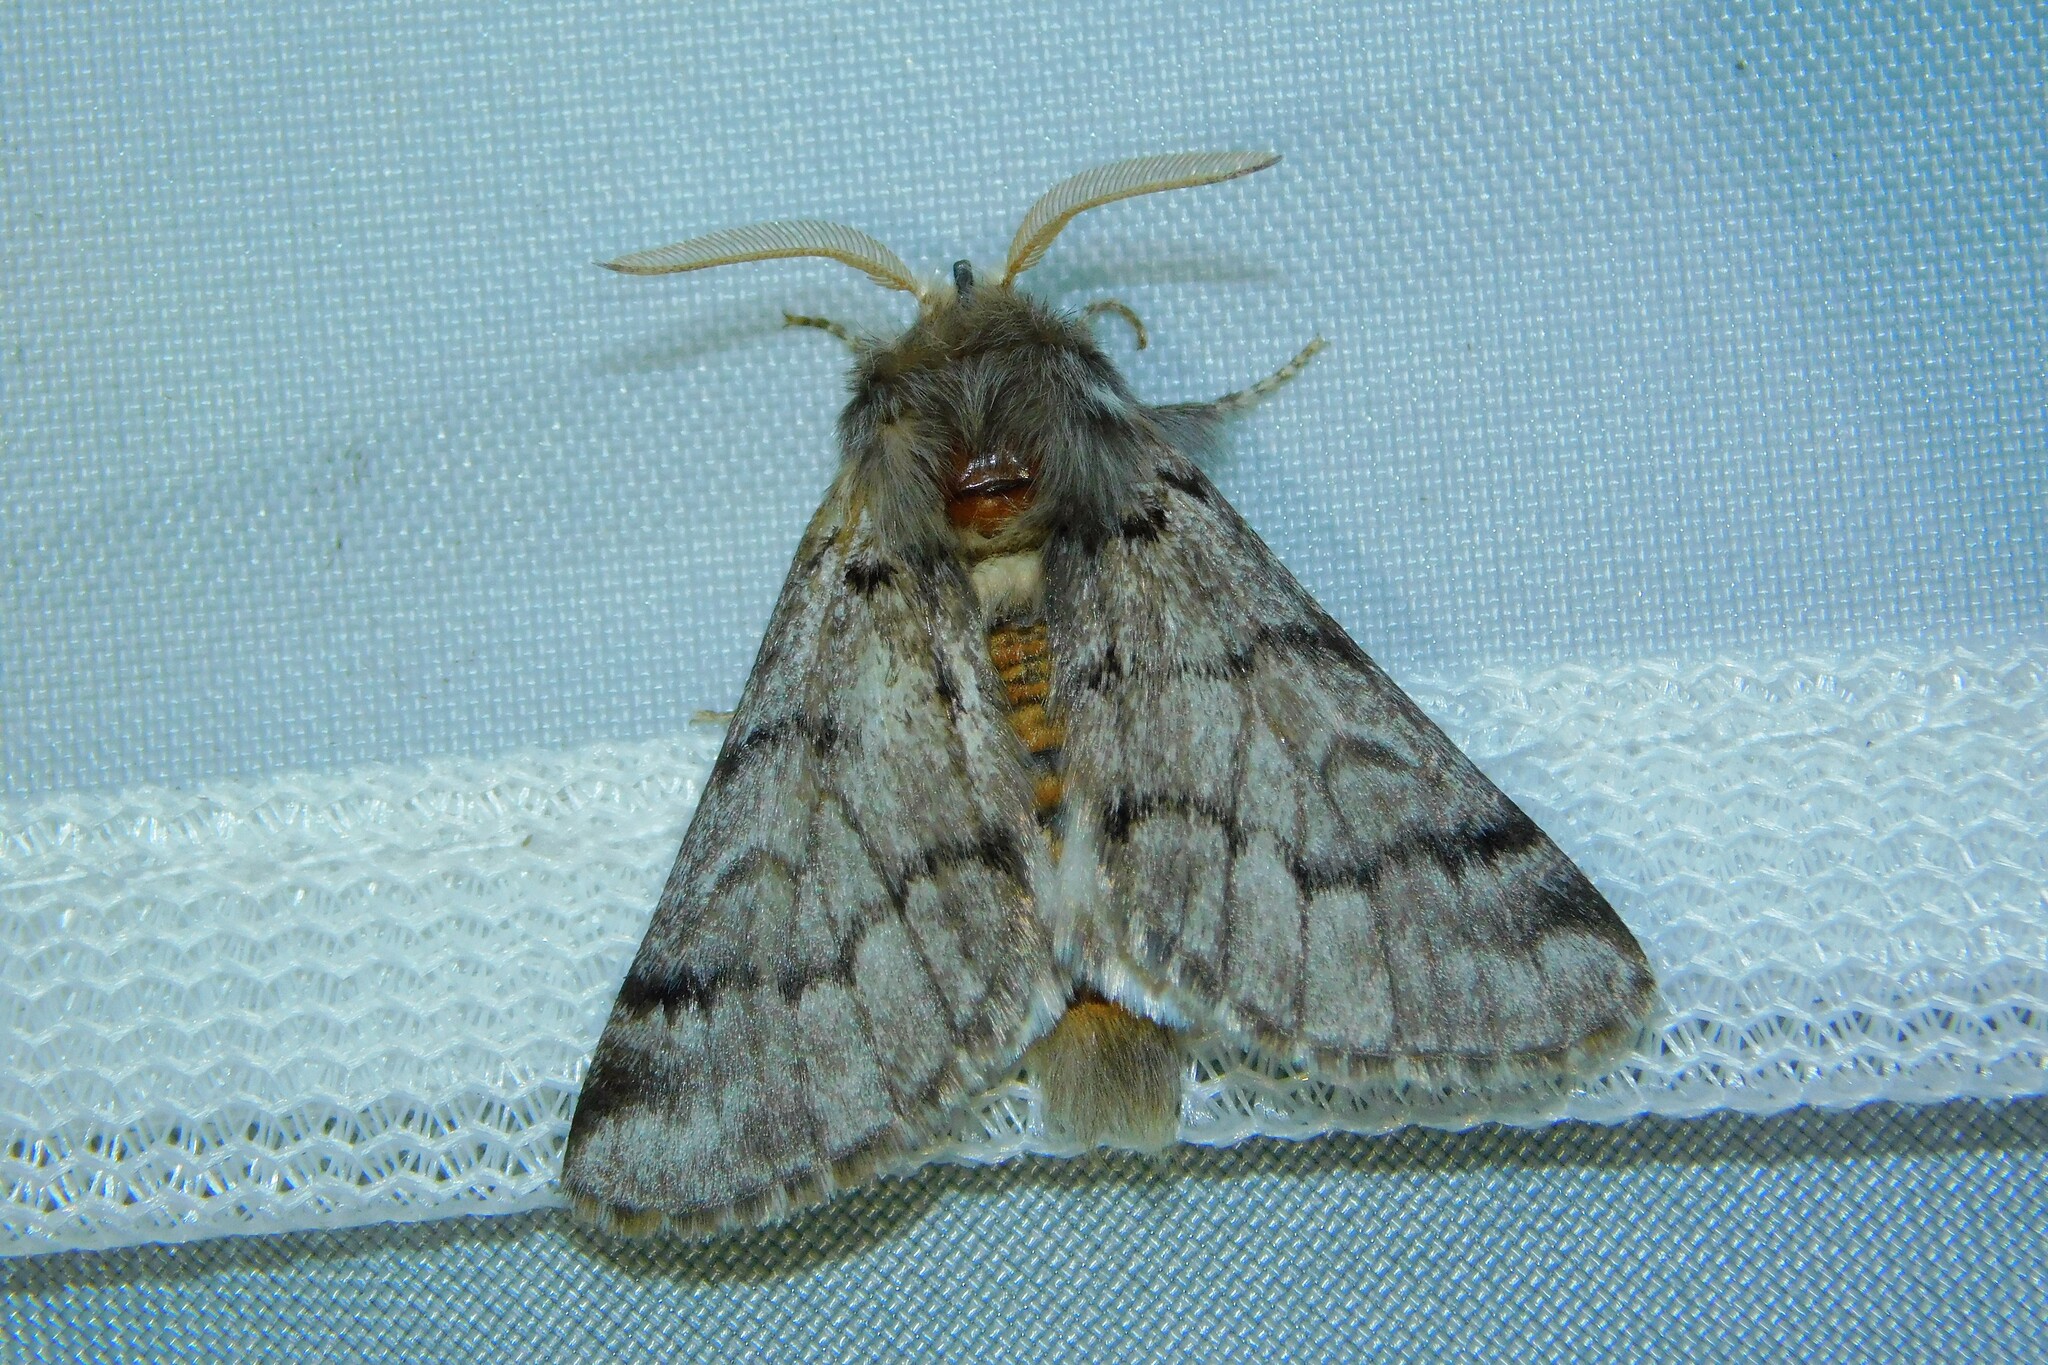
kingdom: Animalia
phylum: Arthropoda
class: Insecta
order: Lepidoptera
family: Notodontidae
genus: Thaumetopoea
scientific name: Thaumetopoea pityocampa
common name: Pine processionary
